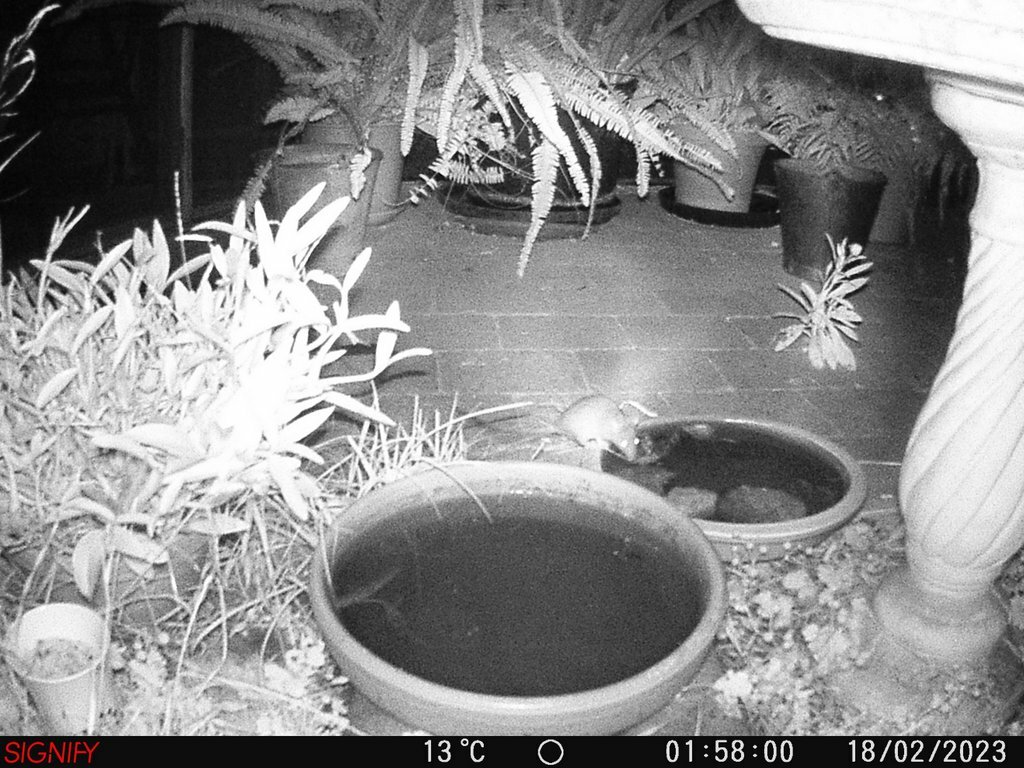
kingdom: Animalia
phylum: Chordata
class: Mammalia
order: Rodentia
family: Muridae
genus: Rattus
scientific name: Rattus rattus
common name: Black rat
